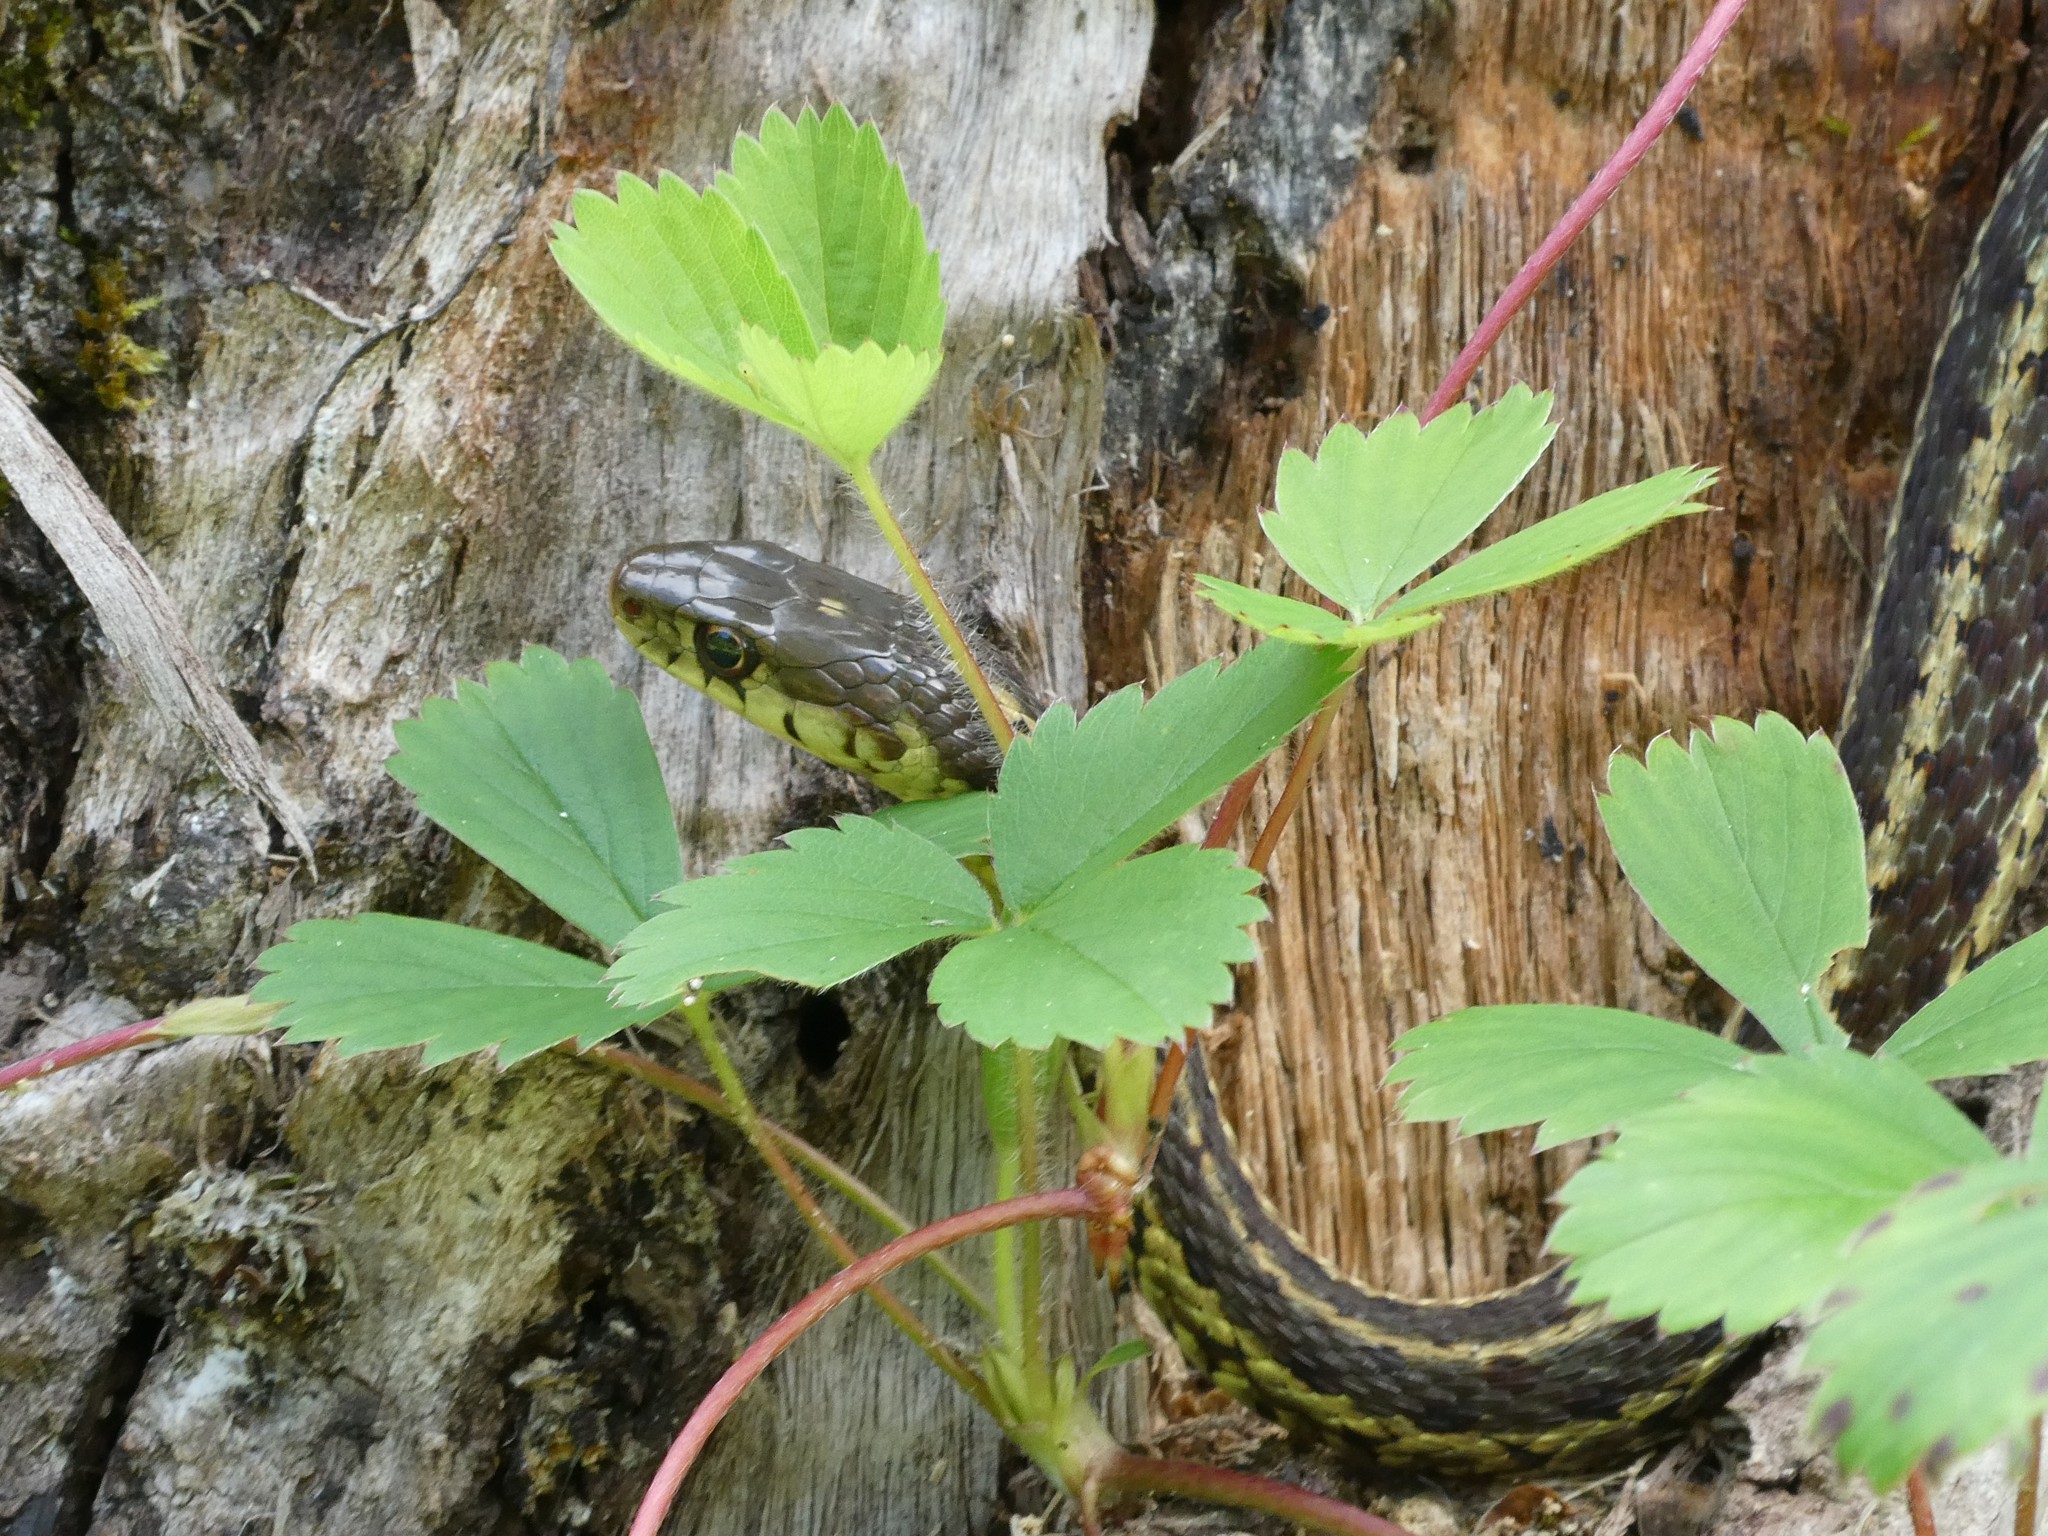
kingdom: Animalia
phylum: Chordata
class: Squamata
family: Colubridae
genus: Thamnophis
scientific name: Thamnophis sirtalis
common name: Common garter snake
